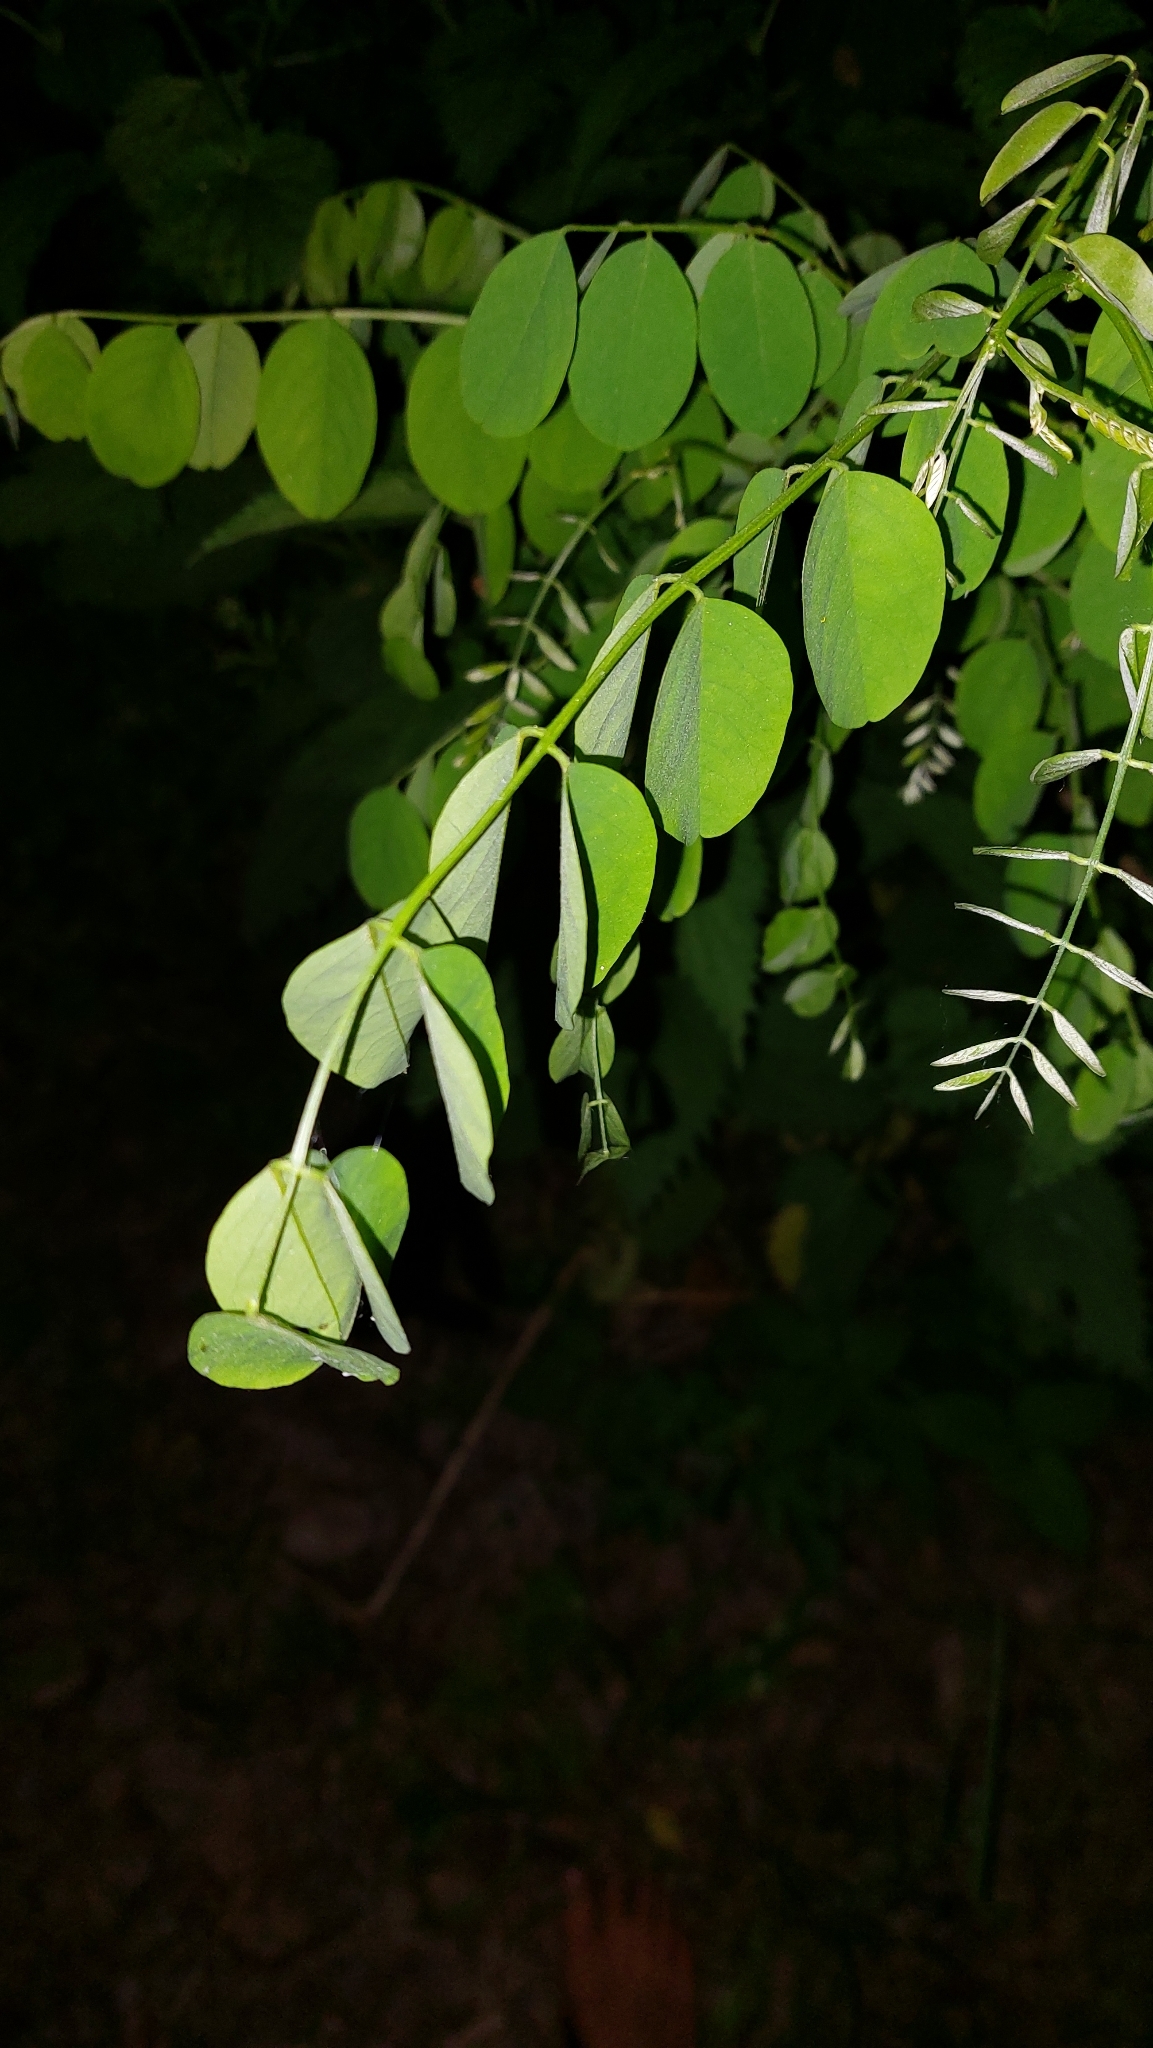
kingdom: Plantae
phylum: Tracheophyta
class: Magnoliopsida
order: Fabales
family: Fabaceae
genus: Robinia
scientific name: Robinia pseudoacacia
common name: Black locust
